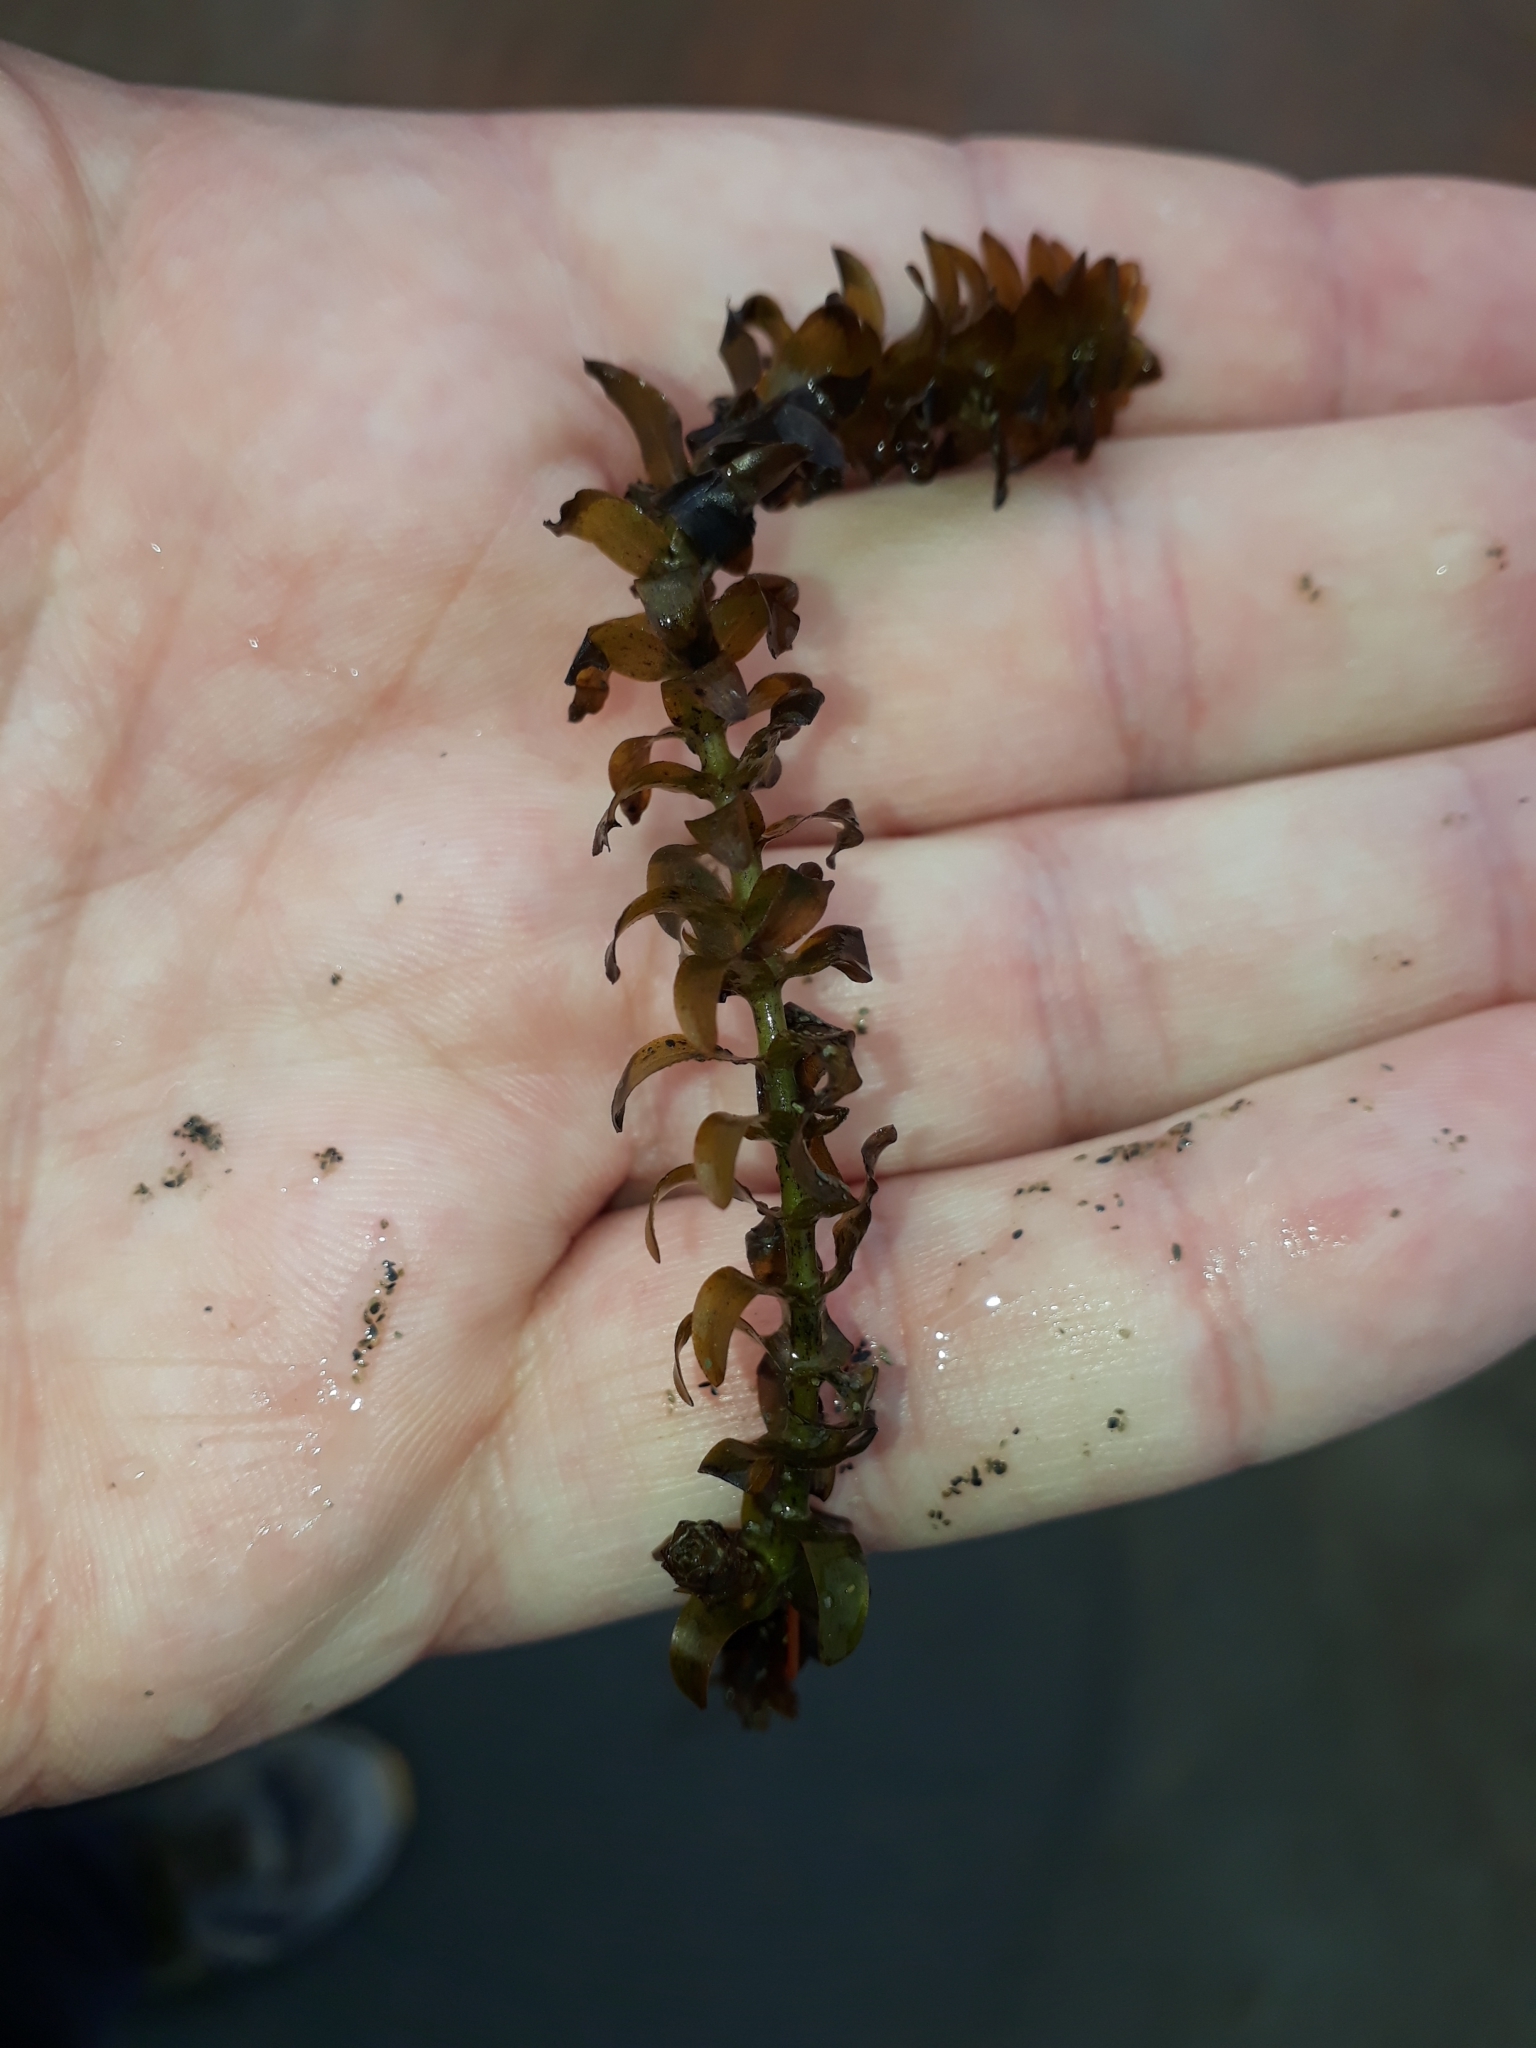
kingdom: Plantae
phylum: Tracheophyta
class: Liliopsida
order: Alismatales
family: Hydrocharitaceae
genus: Elodea
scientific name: Elodea canadensis
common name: Canadian waterweed
